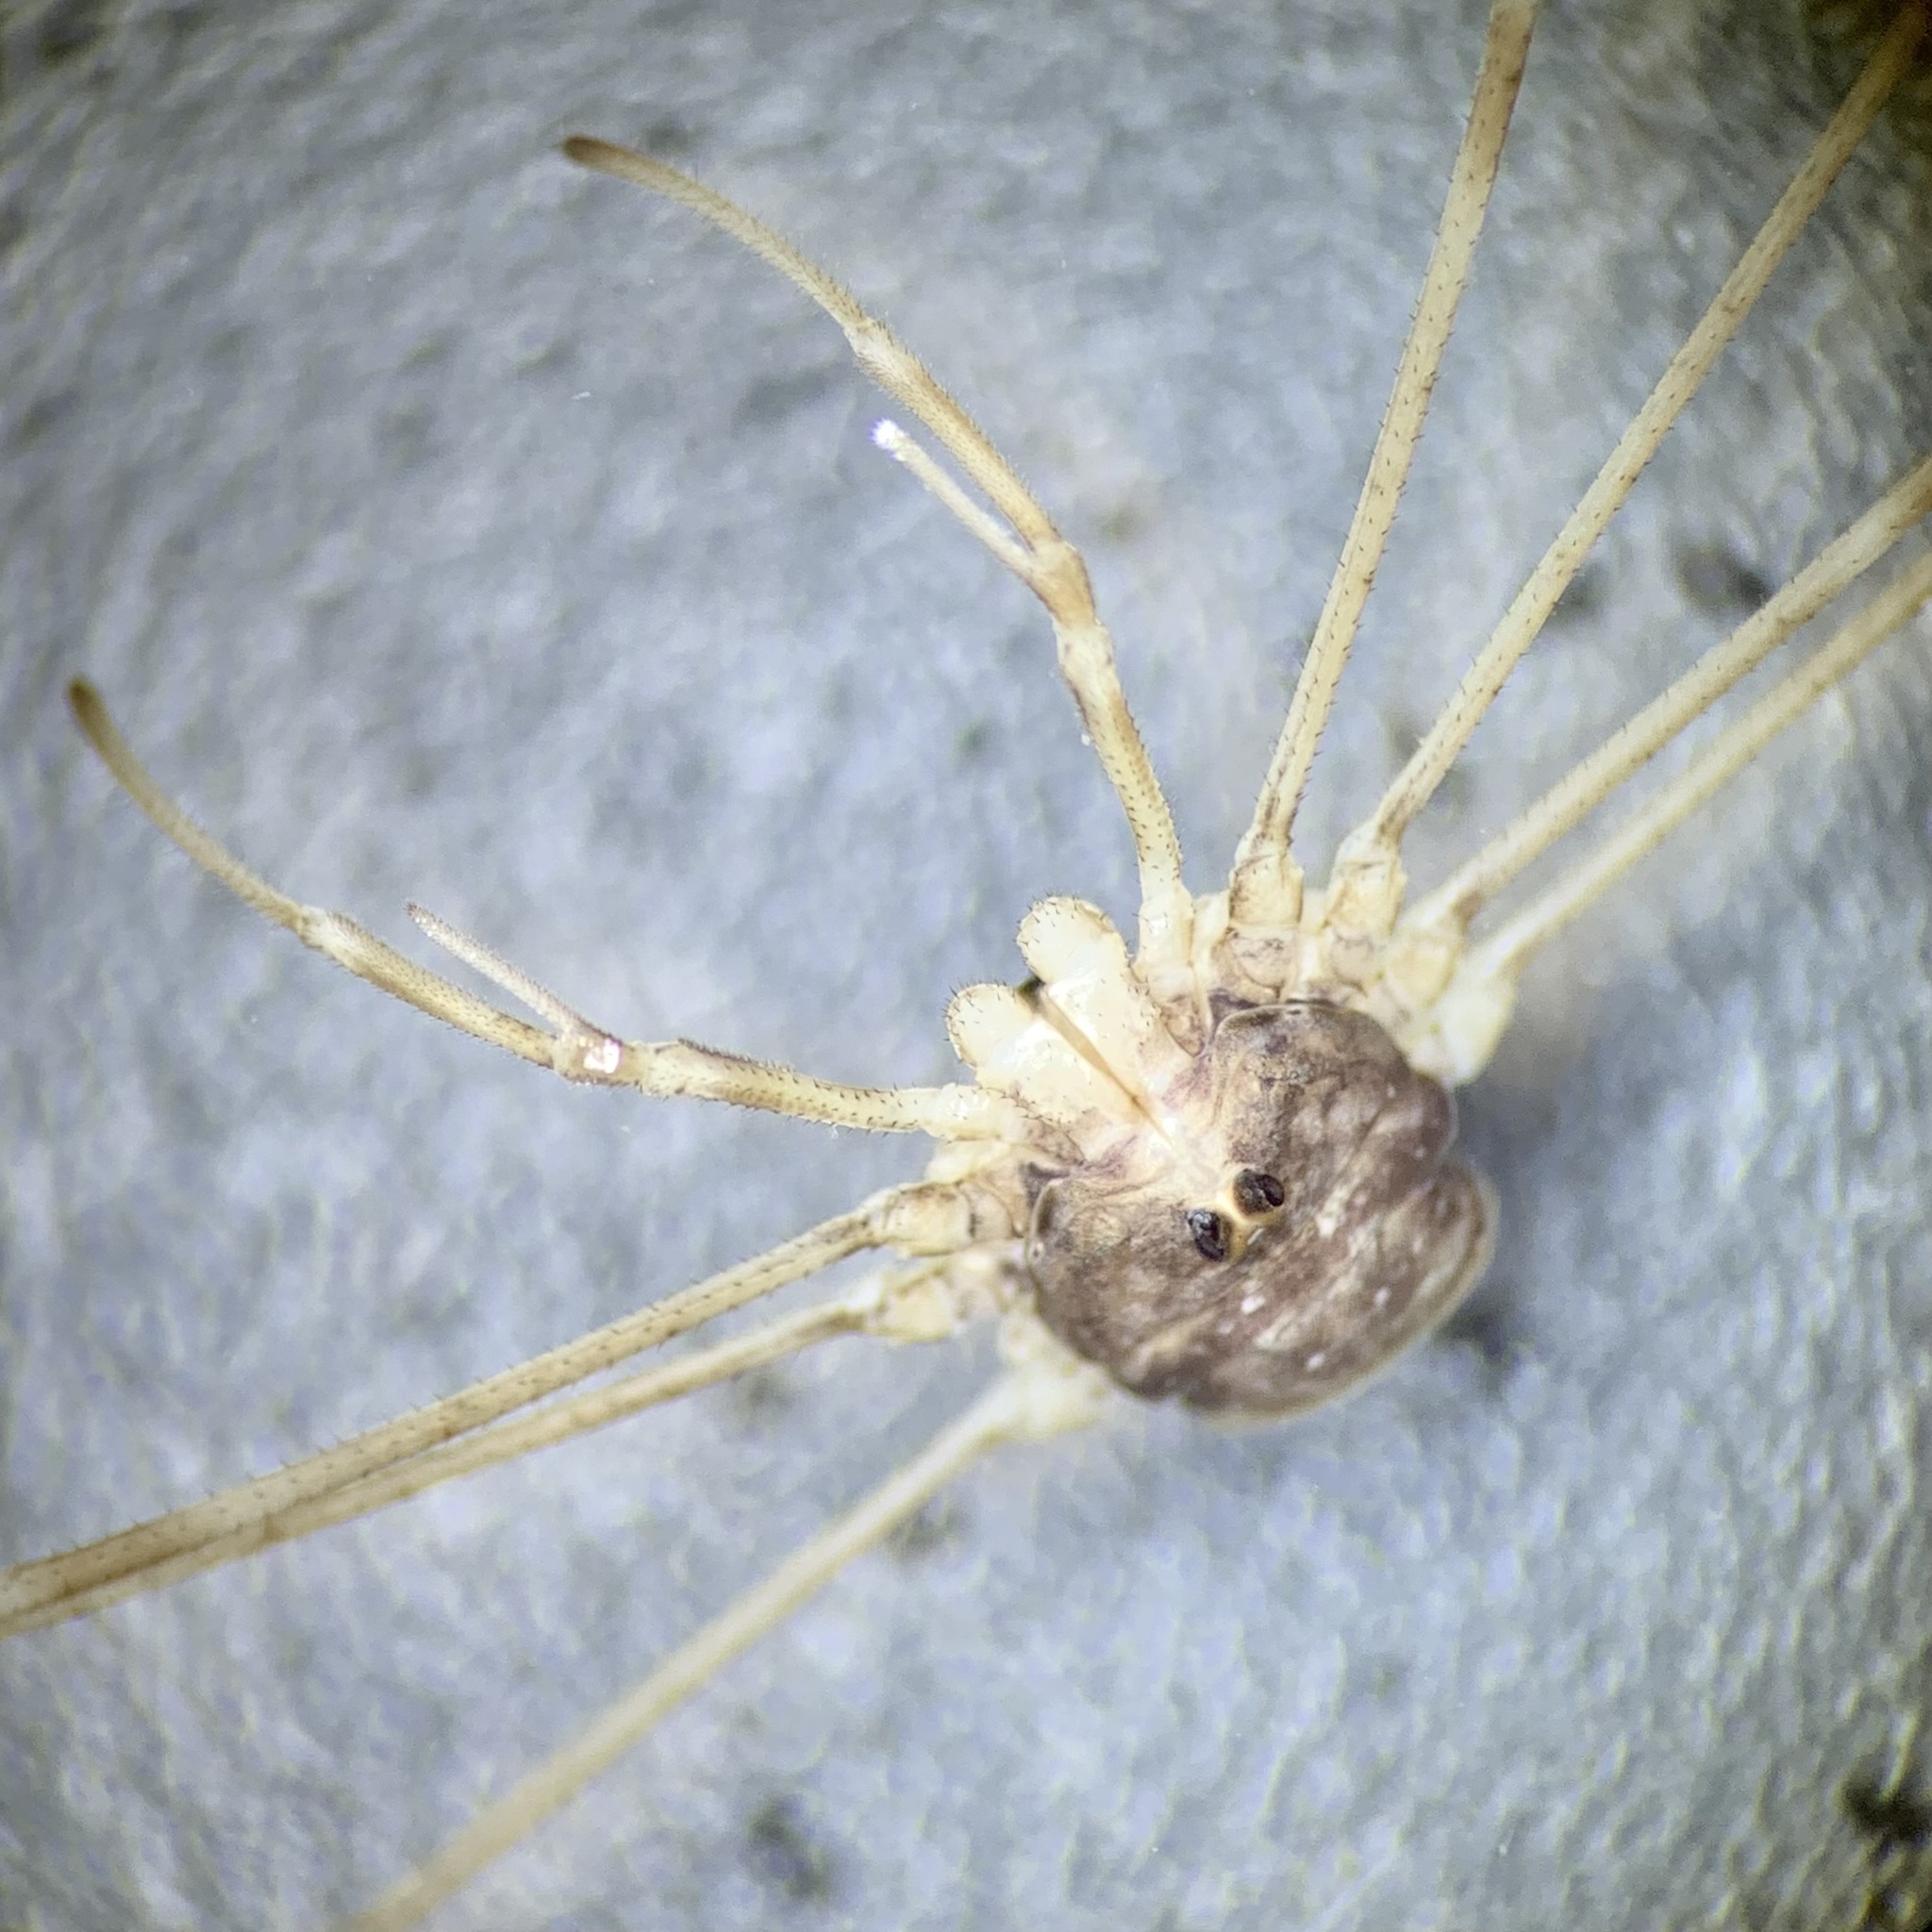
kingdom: Animalia
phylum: Arthropoda
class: Arachnida
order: Opiliones
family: Phalangiidae
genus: Dicranopalpus
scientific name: Dicranopalpus ramosus
